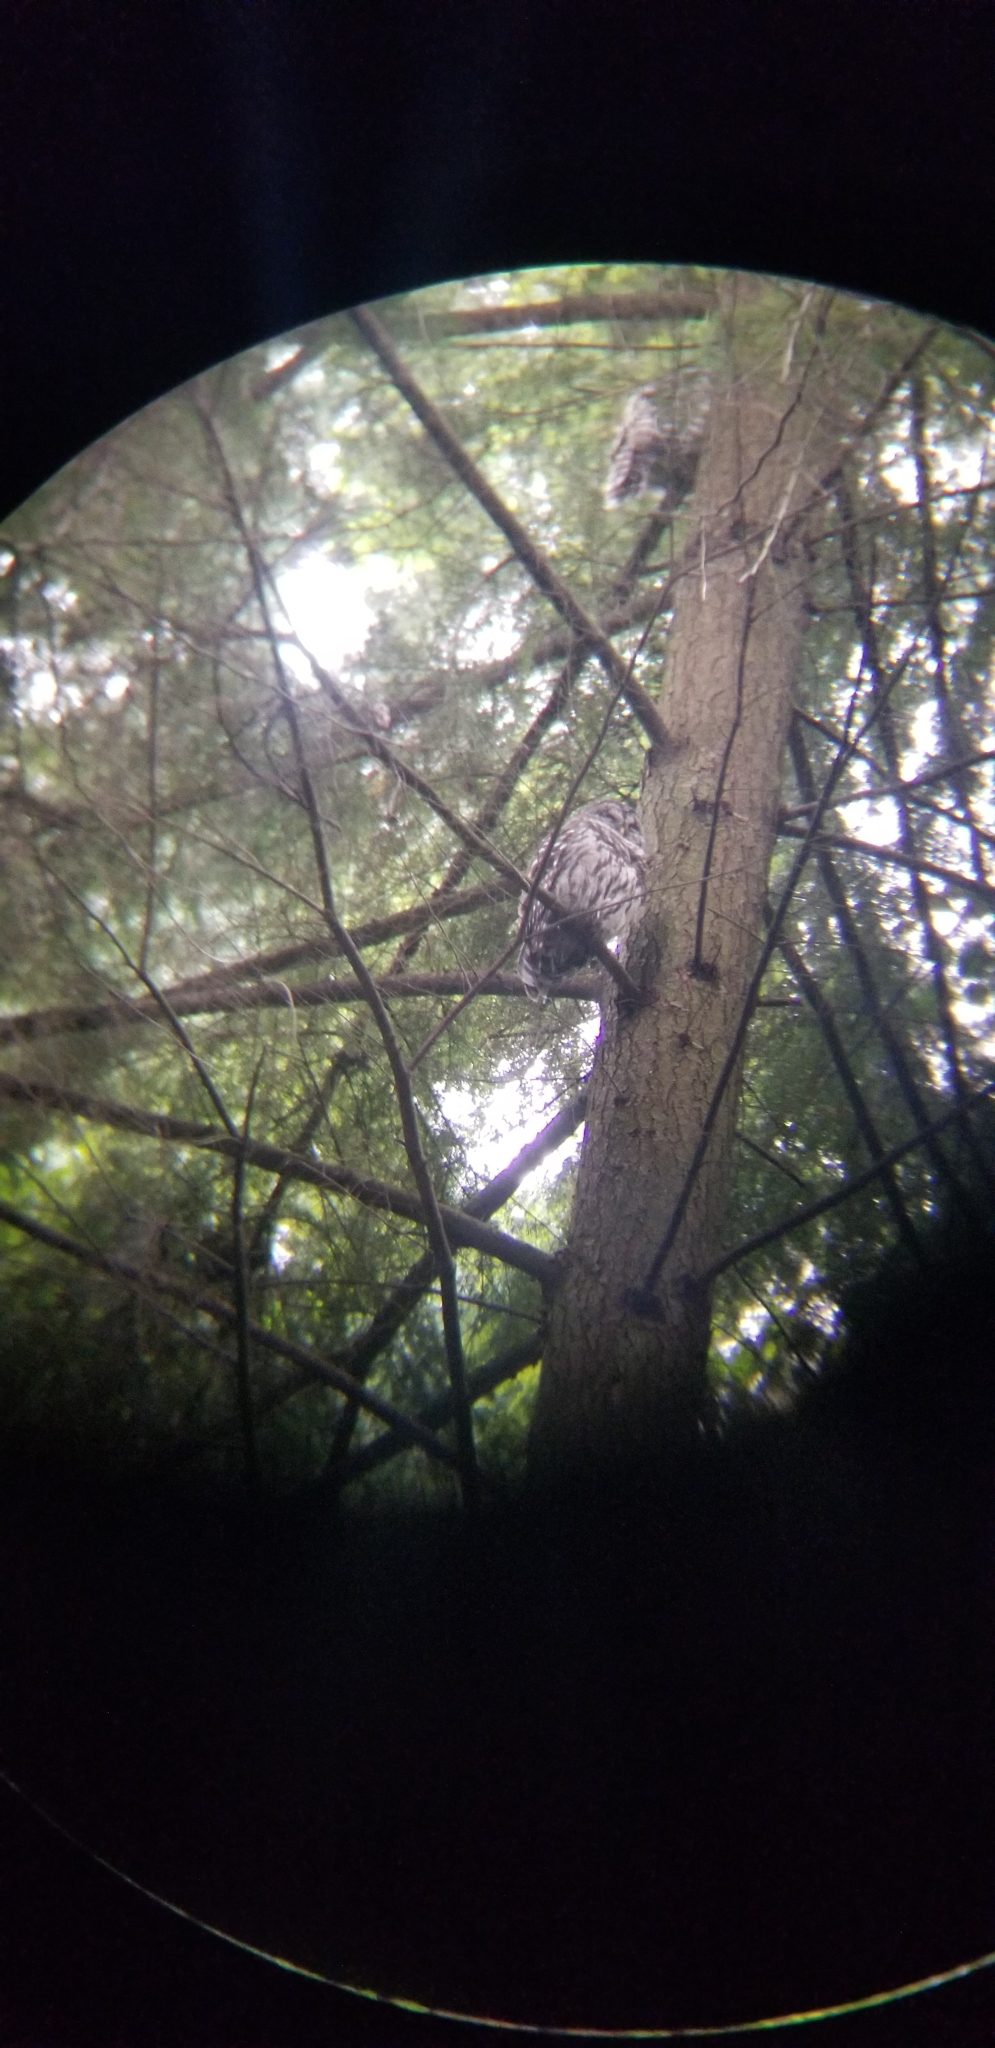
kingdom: Animalia
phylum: Chordata
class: Aves
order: Strigiformes
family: Strigidae
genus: Strix
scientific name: Strix varia
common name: Barred owl
